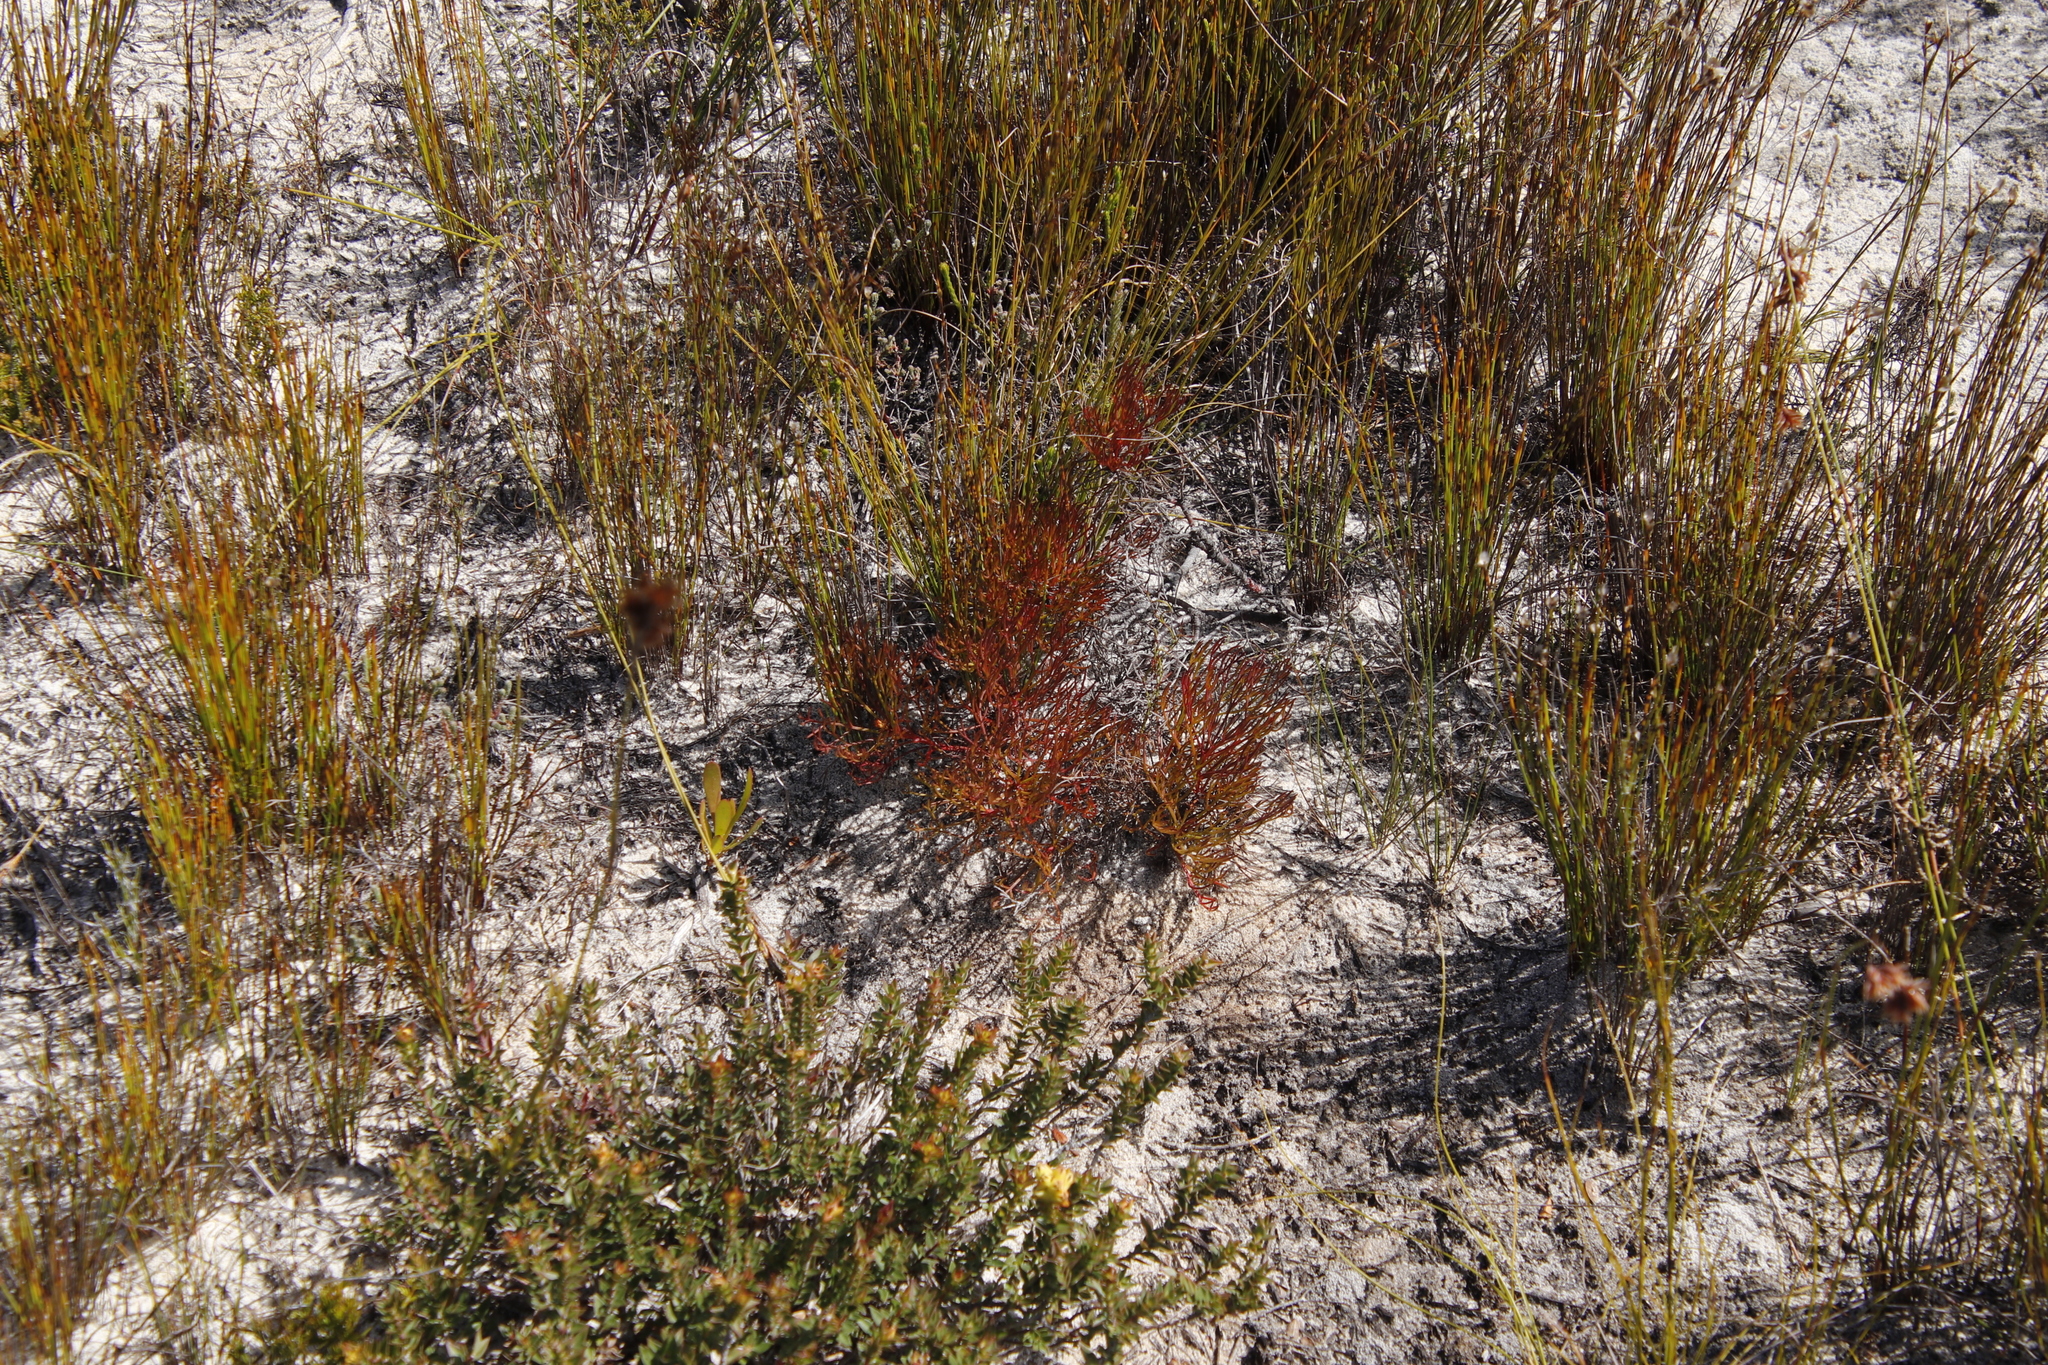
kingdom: Plantae
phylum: Tracheophyta
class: Magnoliopsida
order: Proteales
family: Proteaceae
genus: Serruria
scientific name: Serruria fasciflora
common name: Common pin spiderhead
